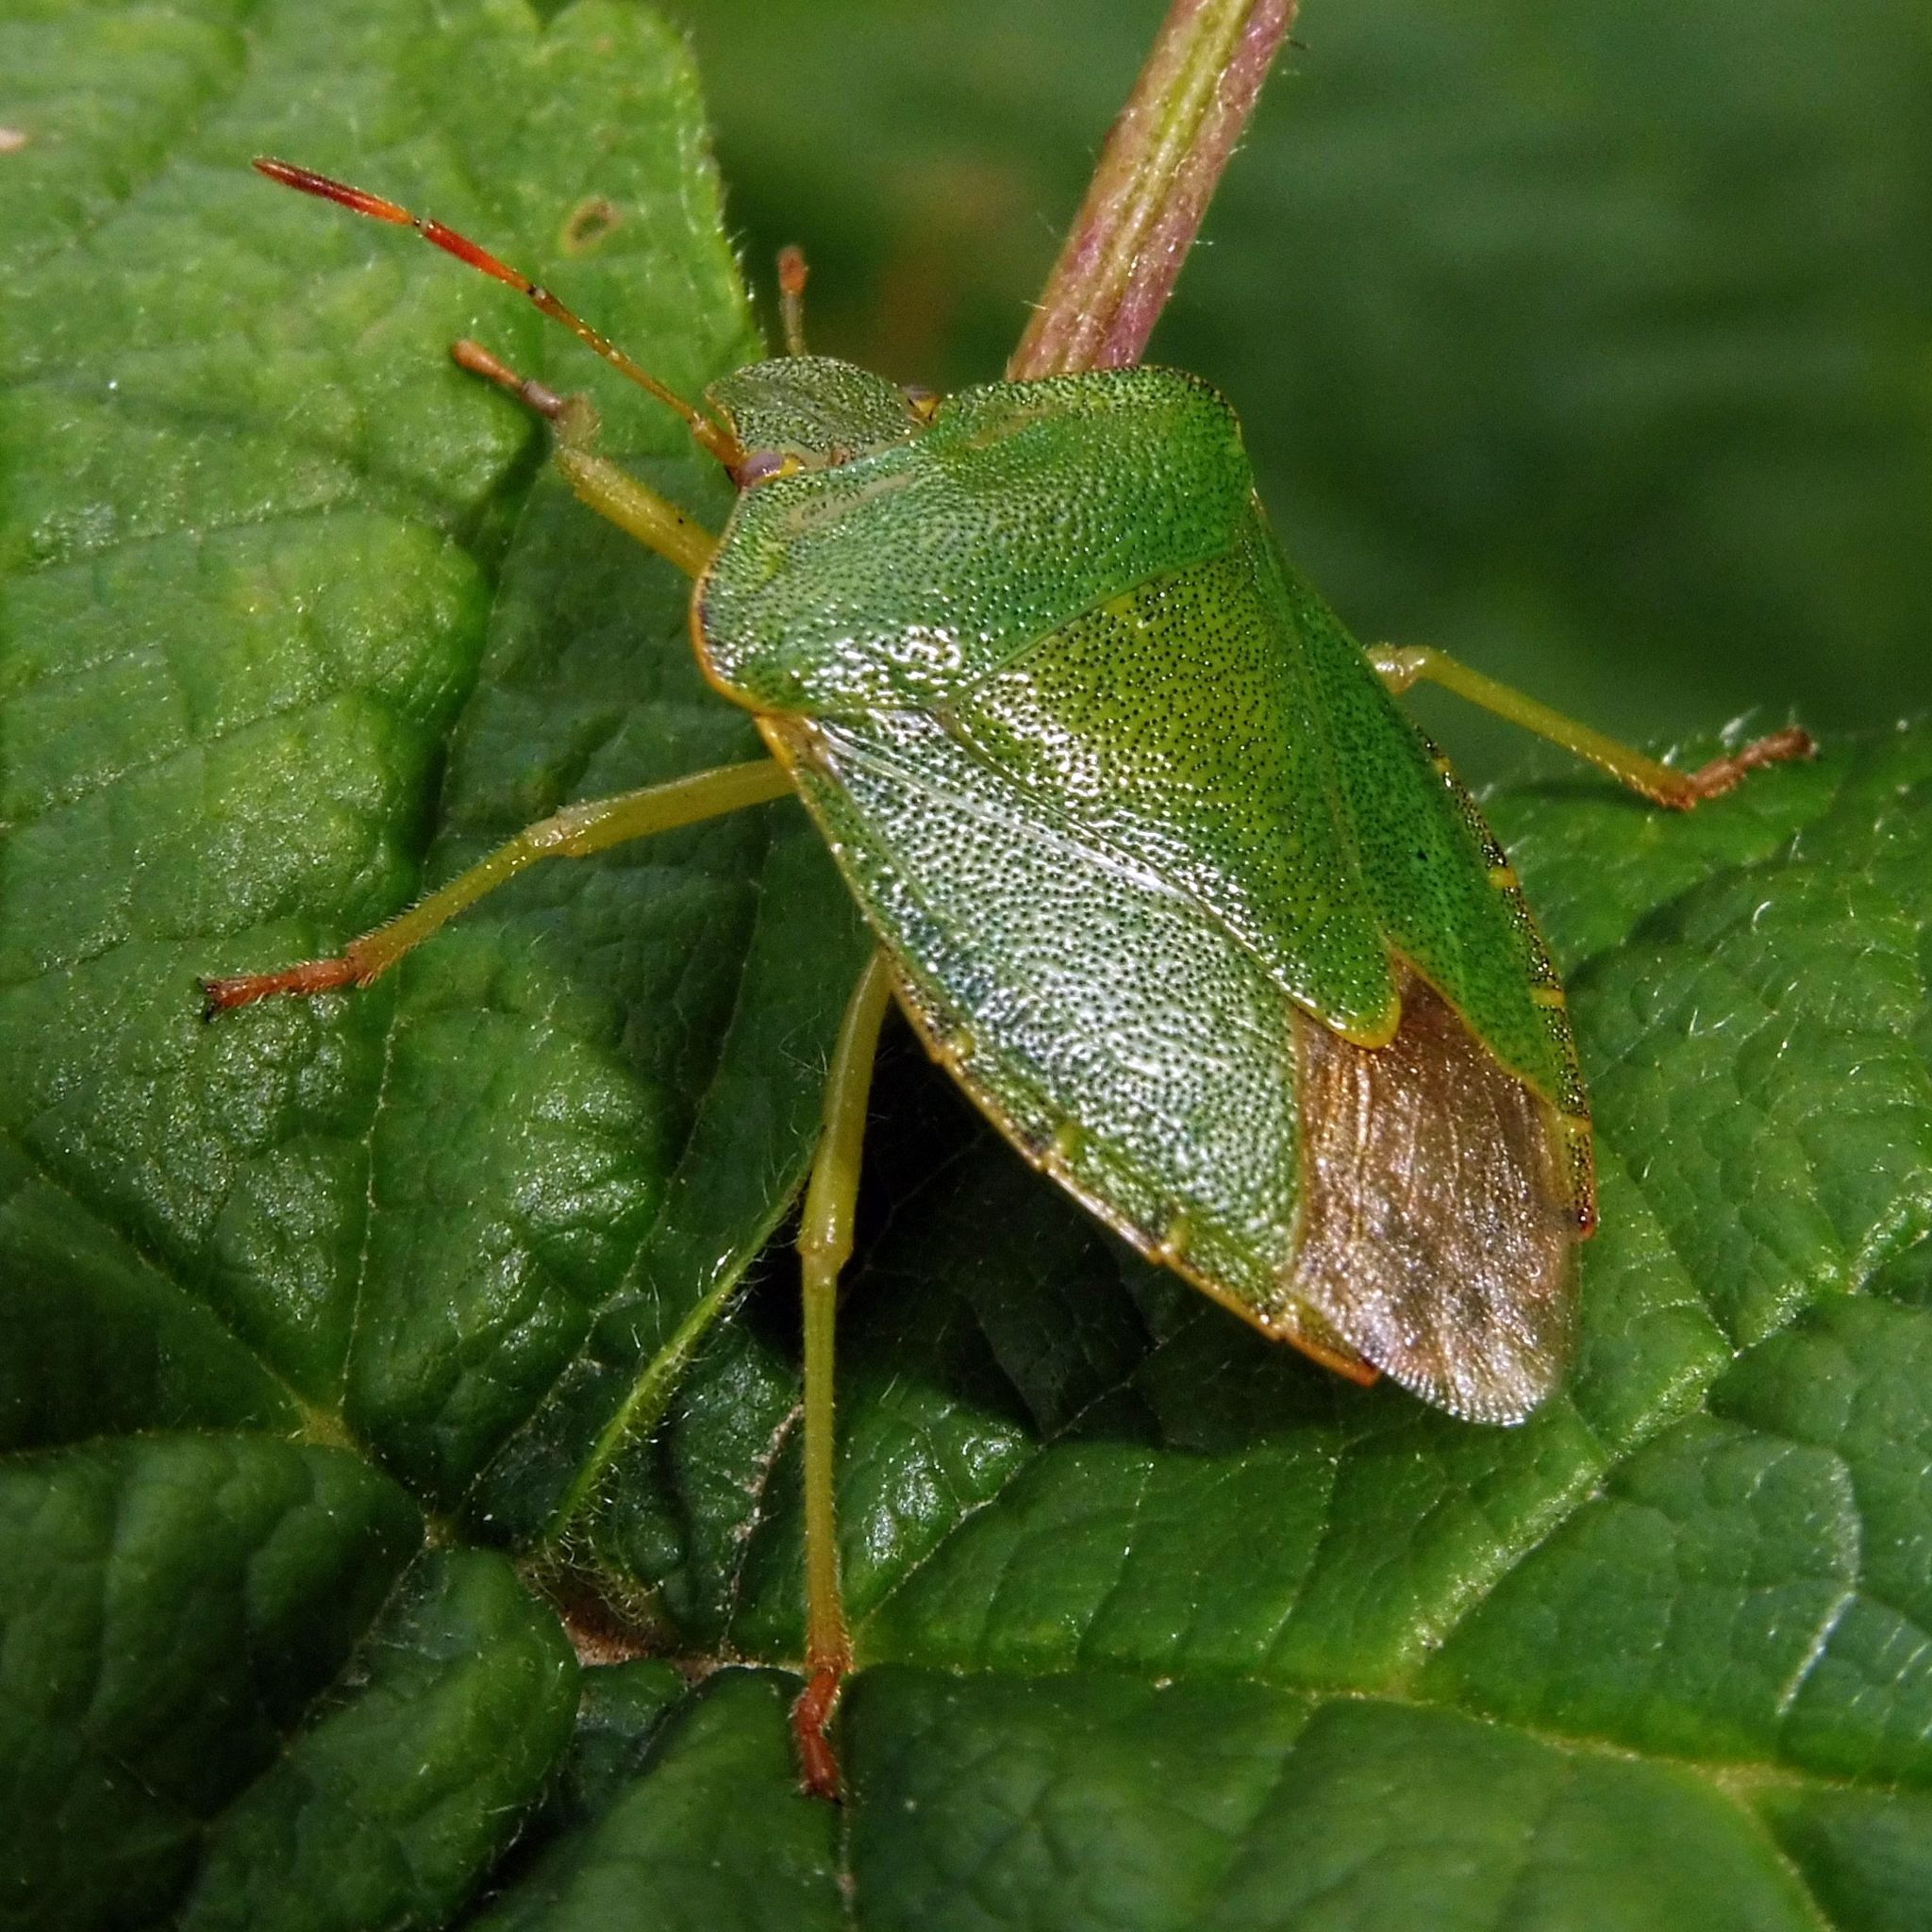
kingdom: Animalia
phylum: Arthropoda
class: Insecta
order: Hemiptera
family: Pentatomidae
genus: Palomena
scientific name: Palomena prasina
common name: Green shieldbug
